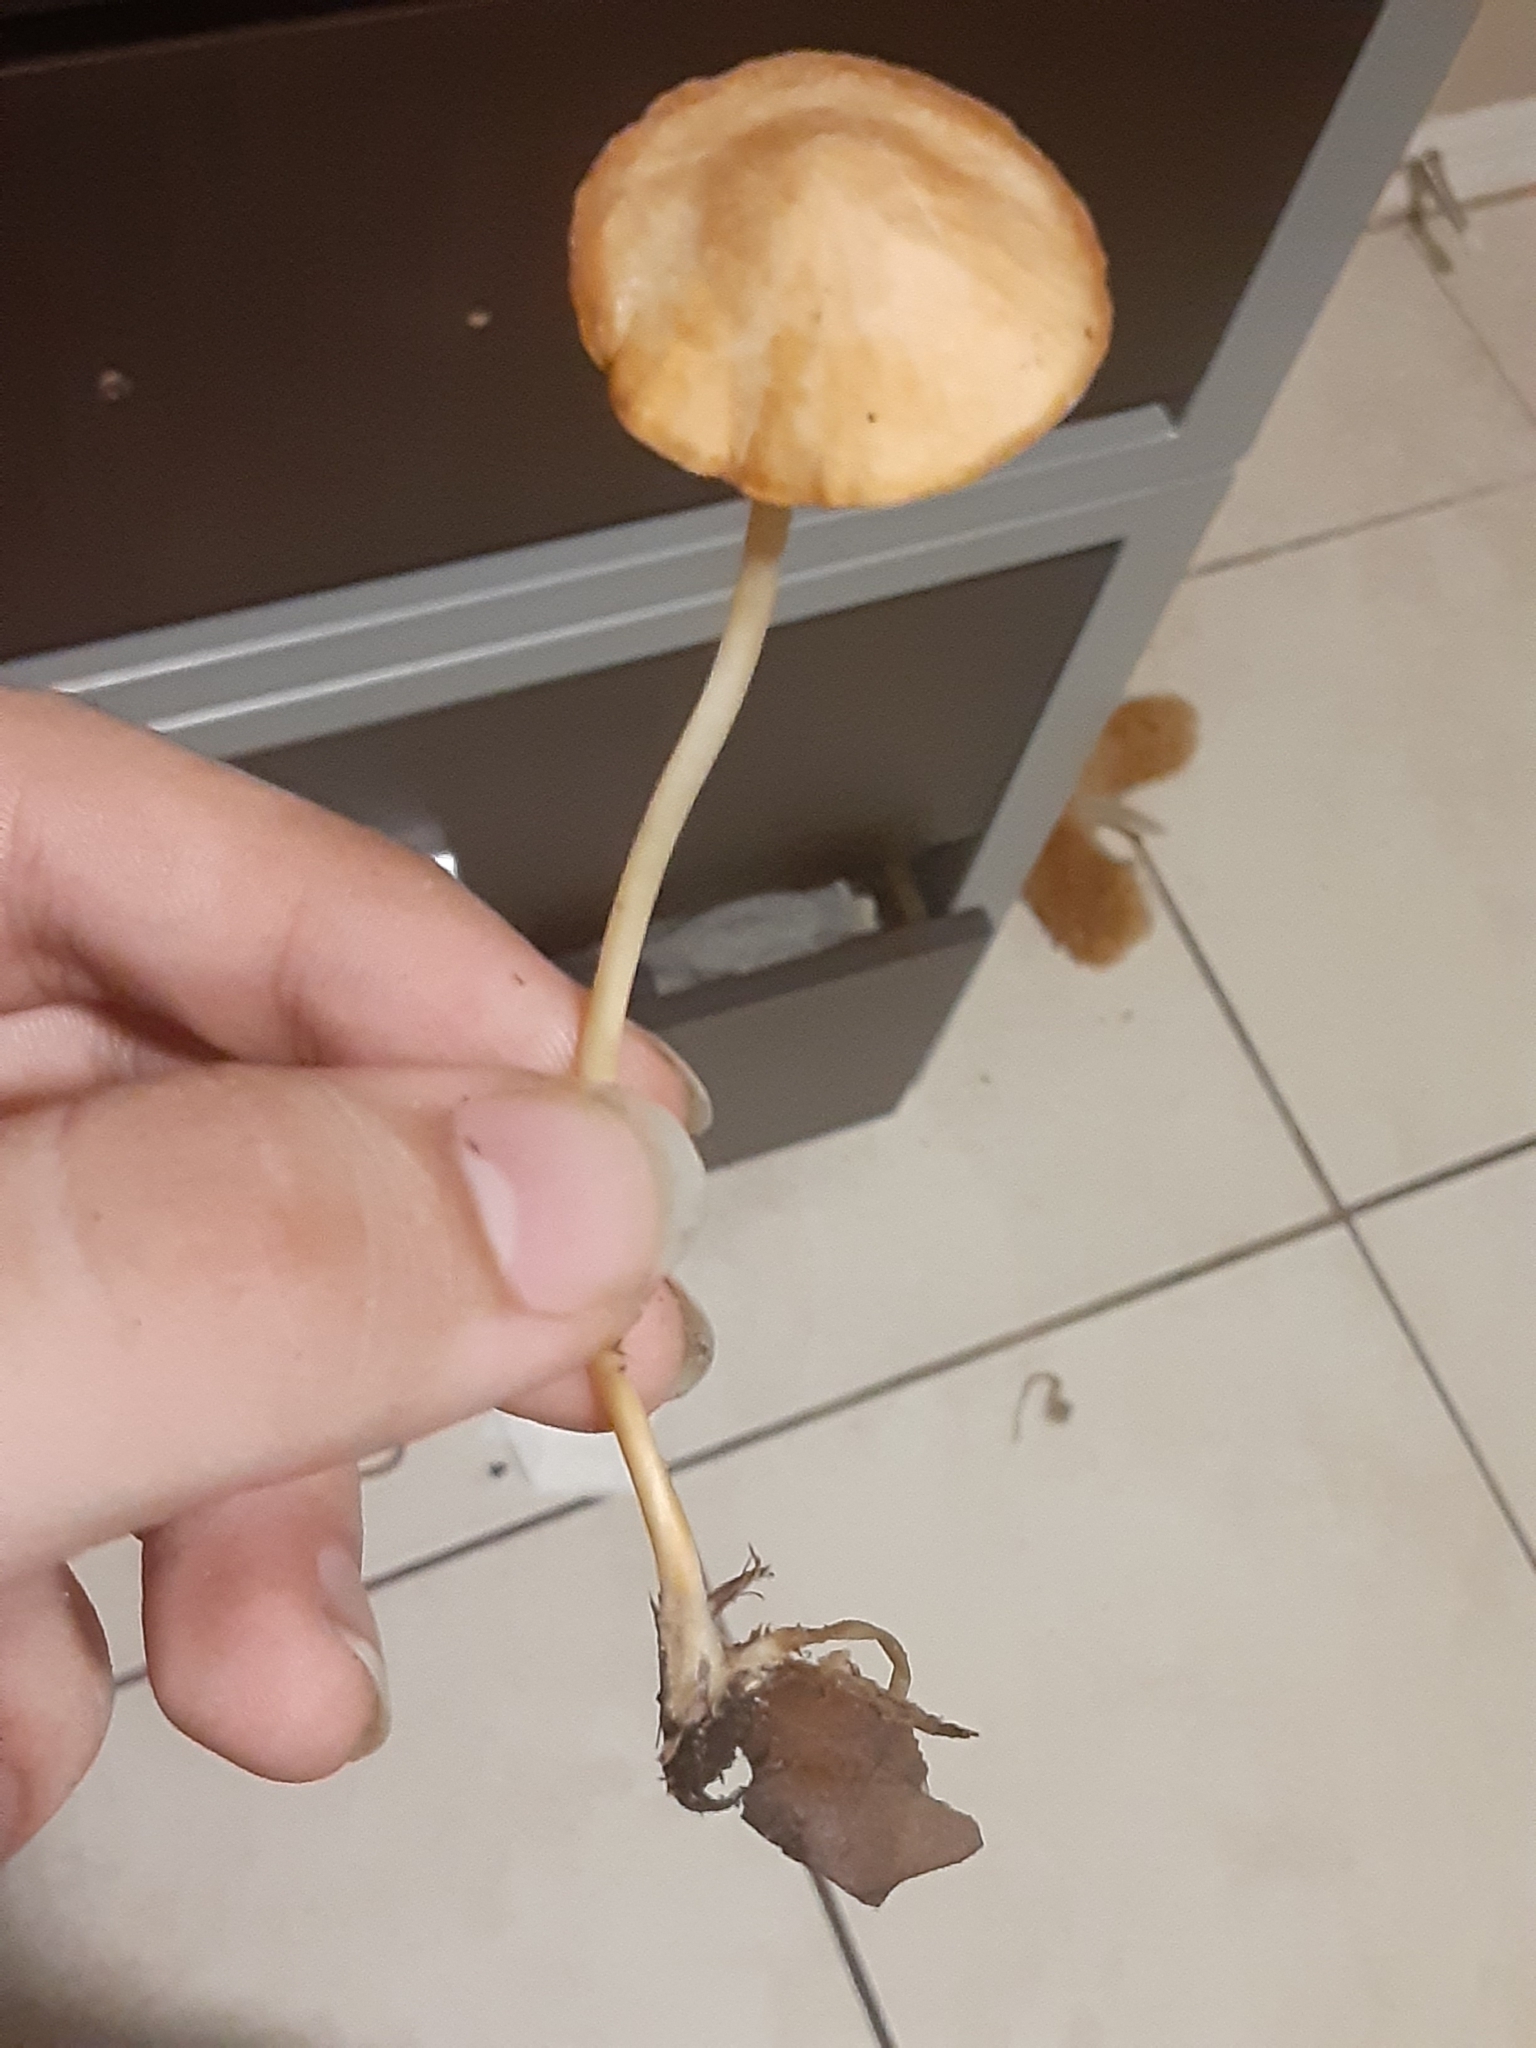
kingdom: Fungi
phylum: Basidiomycota
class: Agaricomycetes
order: Agaricales
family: Marasmiaceae
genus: Marasmius
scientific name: Marasmius vagus
